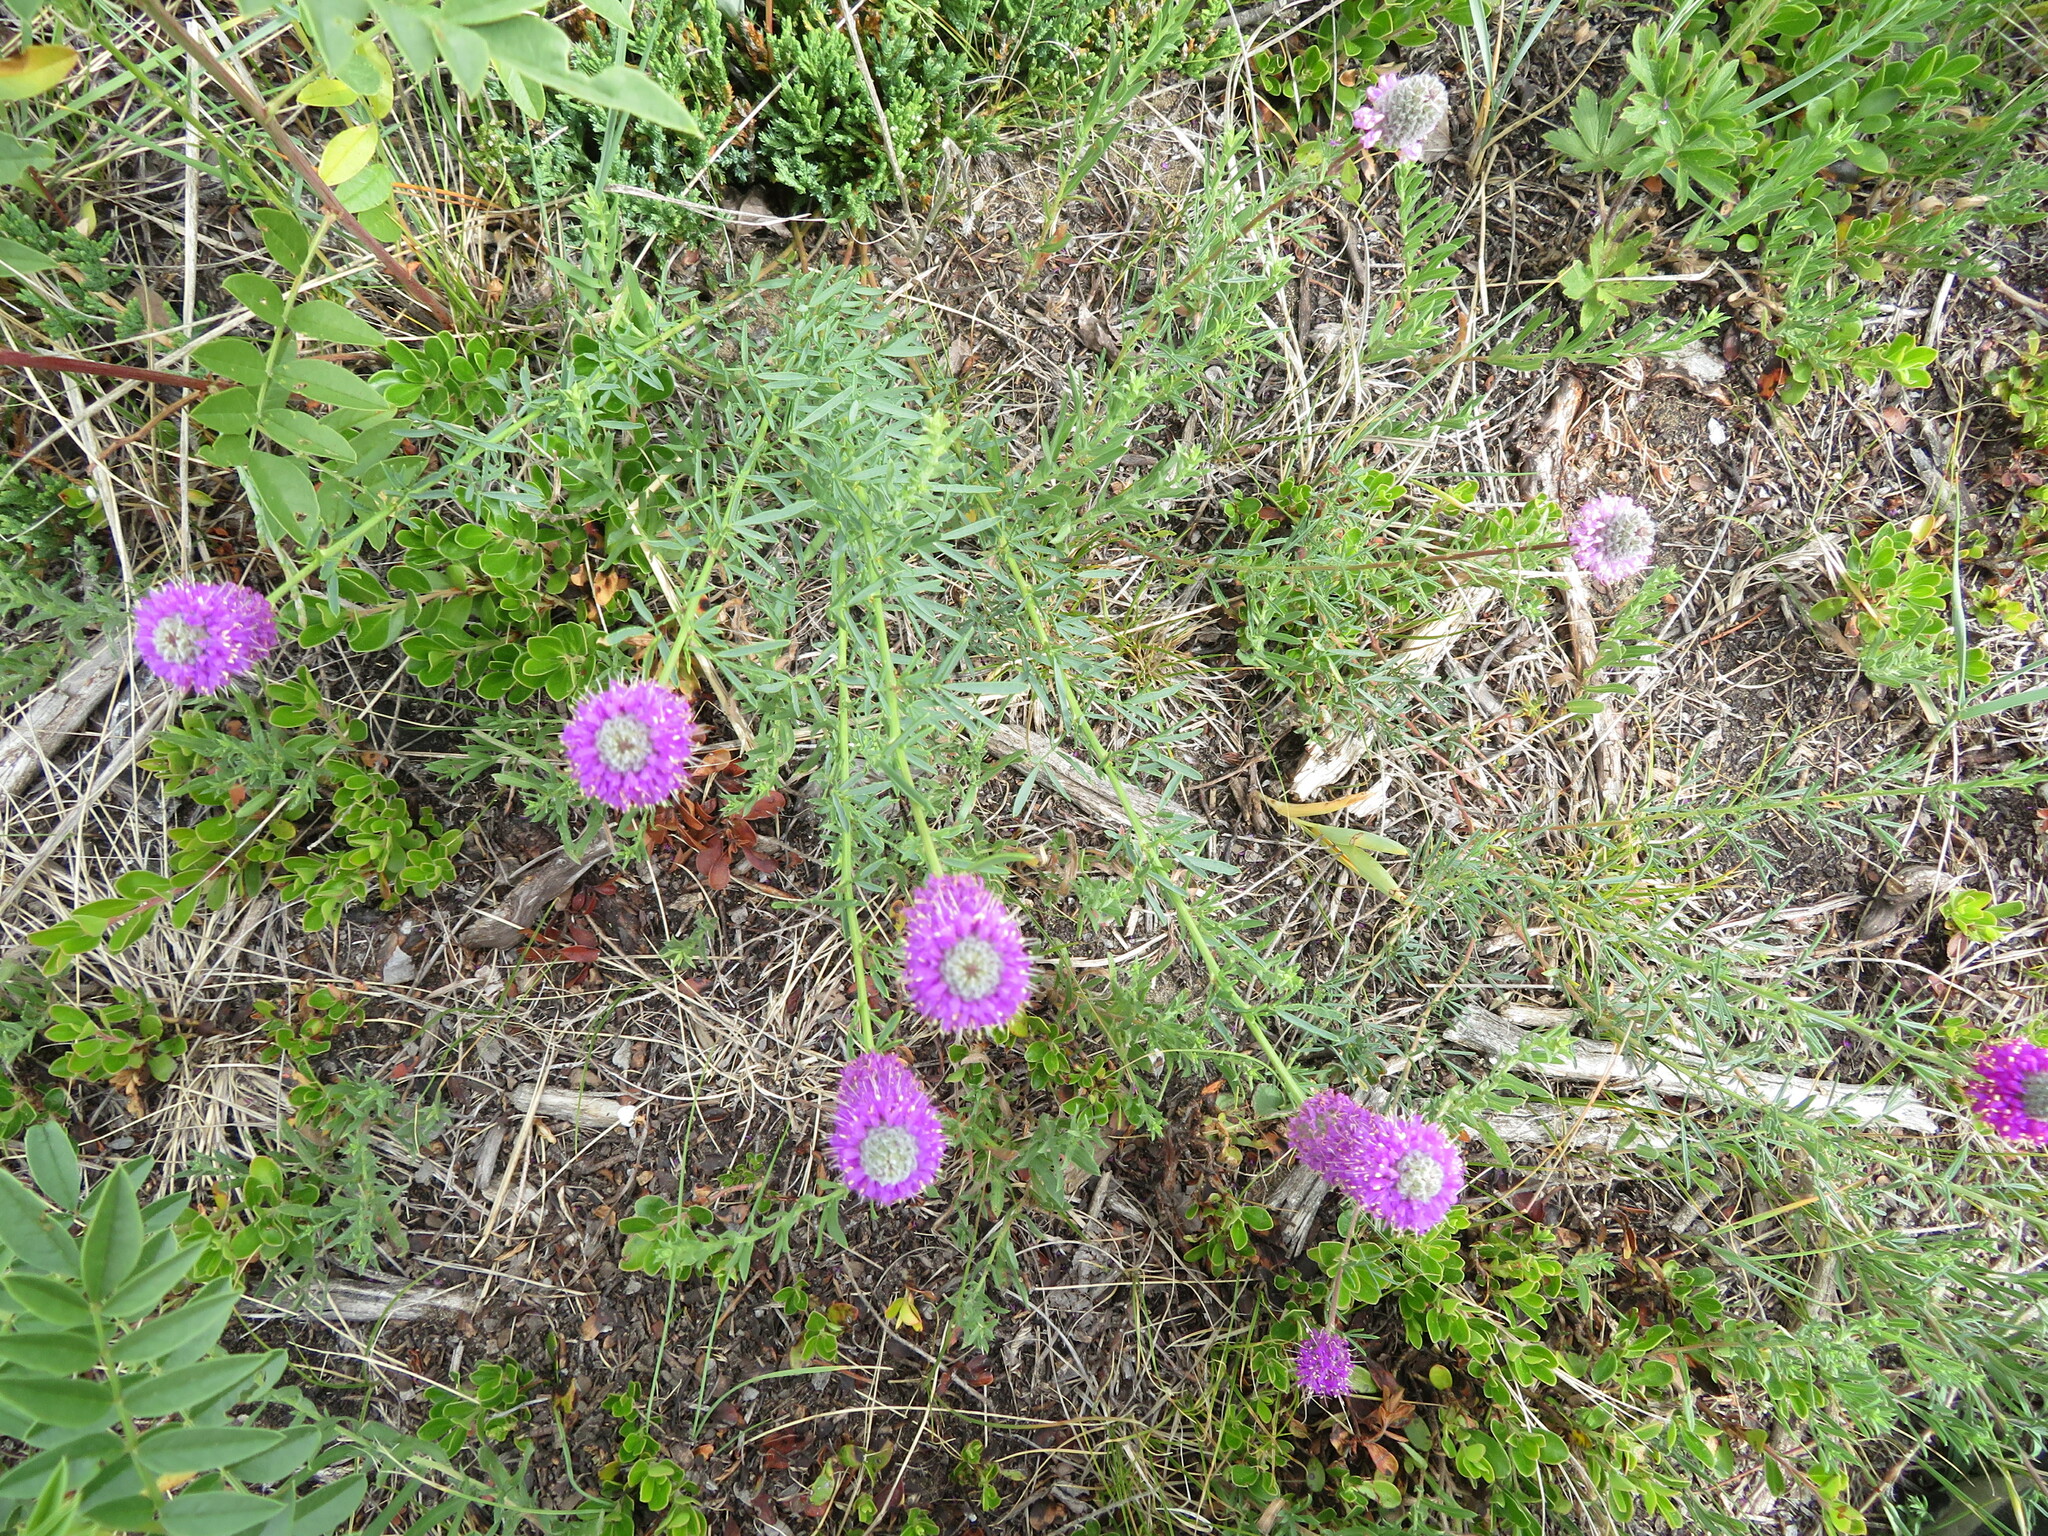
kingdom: Plantae
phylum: Tracheophyta
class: Magnoliopsida
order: Fabales
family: Fabaceae
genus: Dalea
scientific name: Dalea purpurea
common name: Purple prairie-clover
